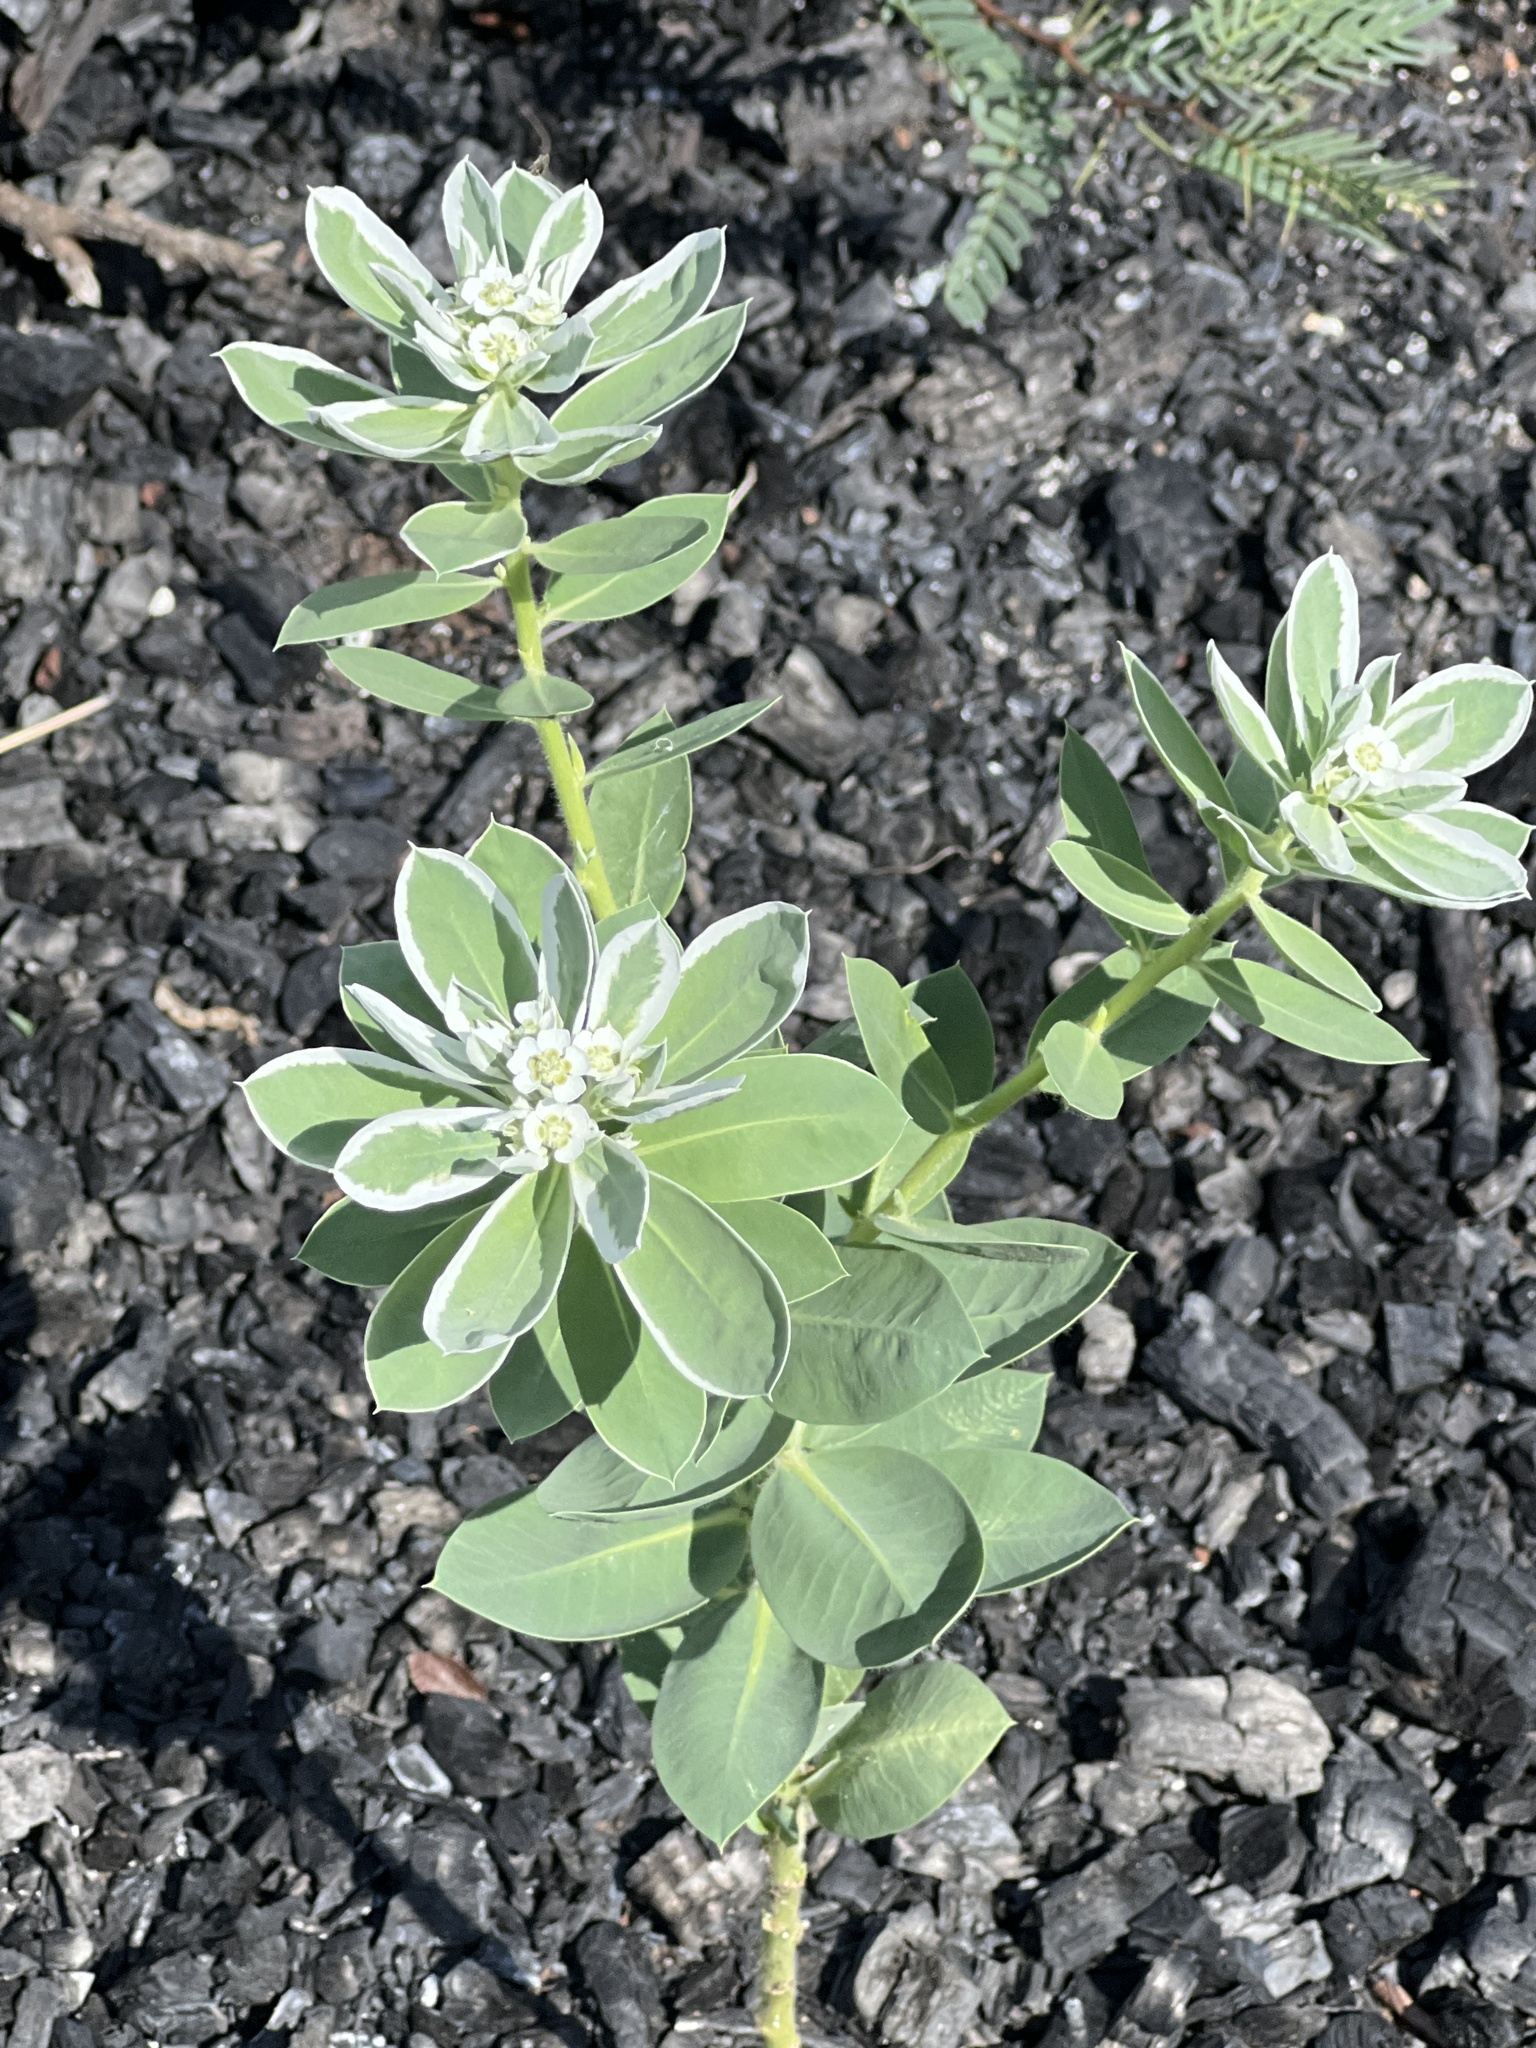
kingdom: Plantae
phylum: Tracheophyta
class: Magnoliopsida
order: Malpighiales
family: Euphorbiaceae
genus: Euphorbia
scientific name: Euphorbia marginata
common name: Ghostweed
